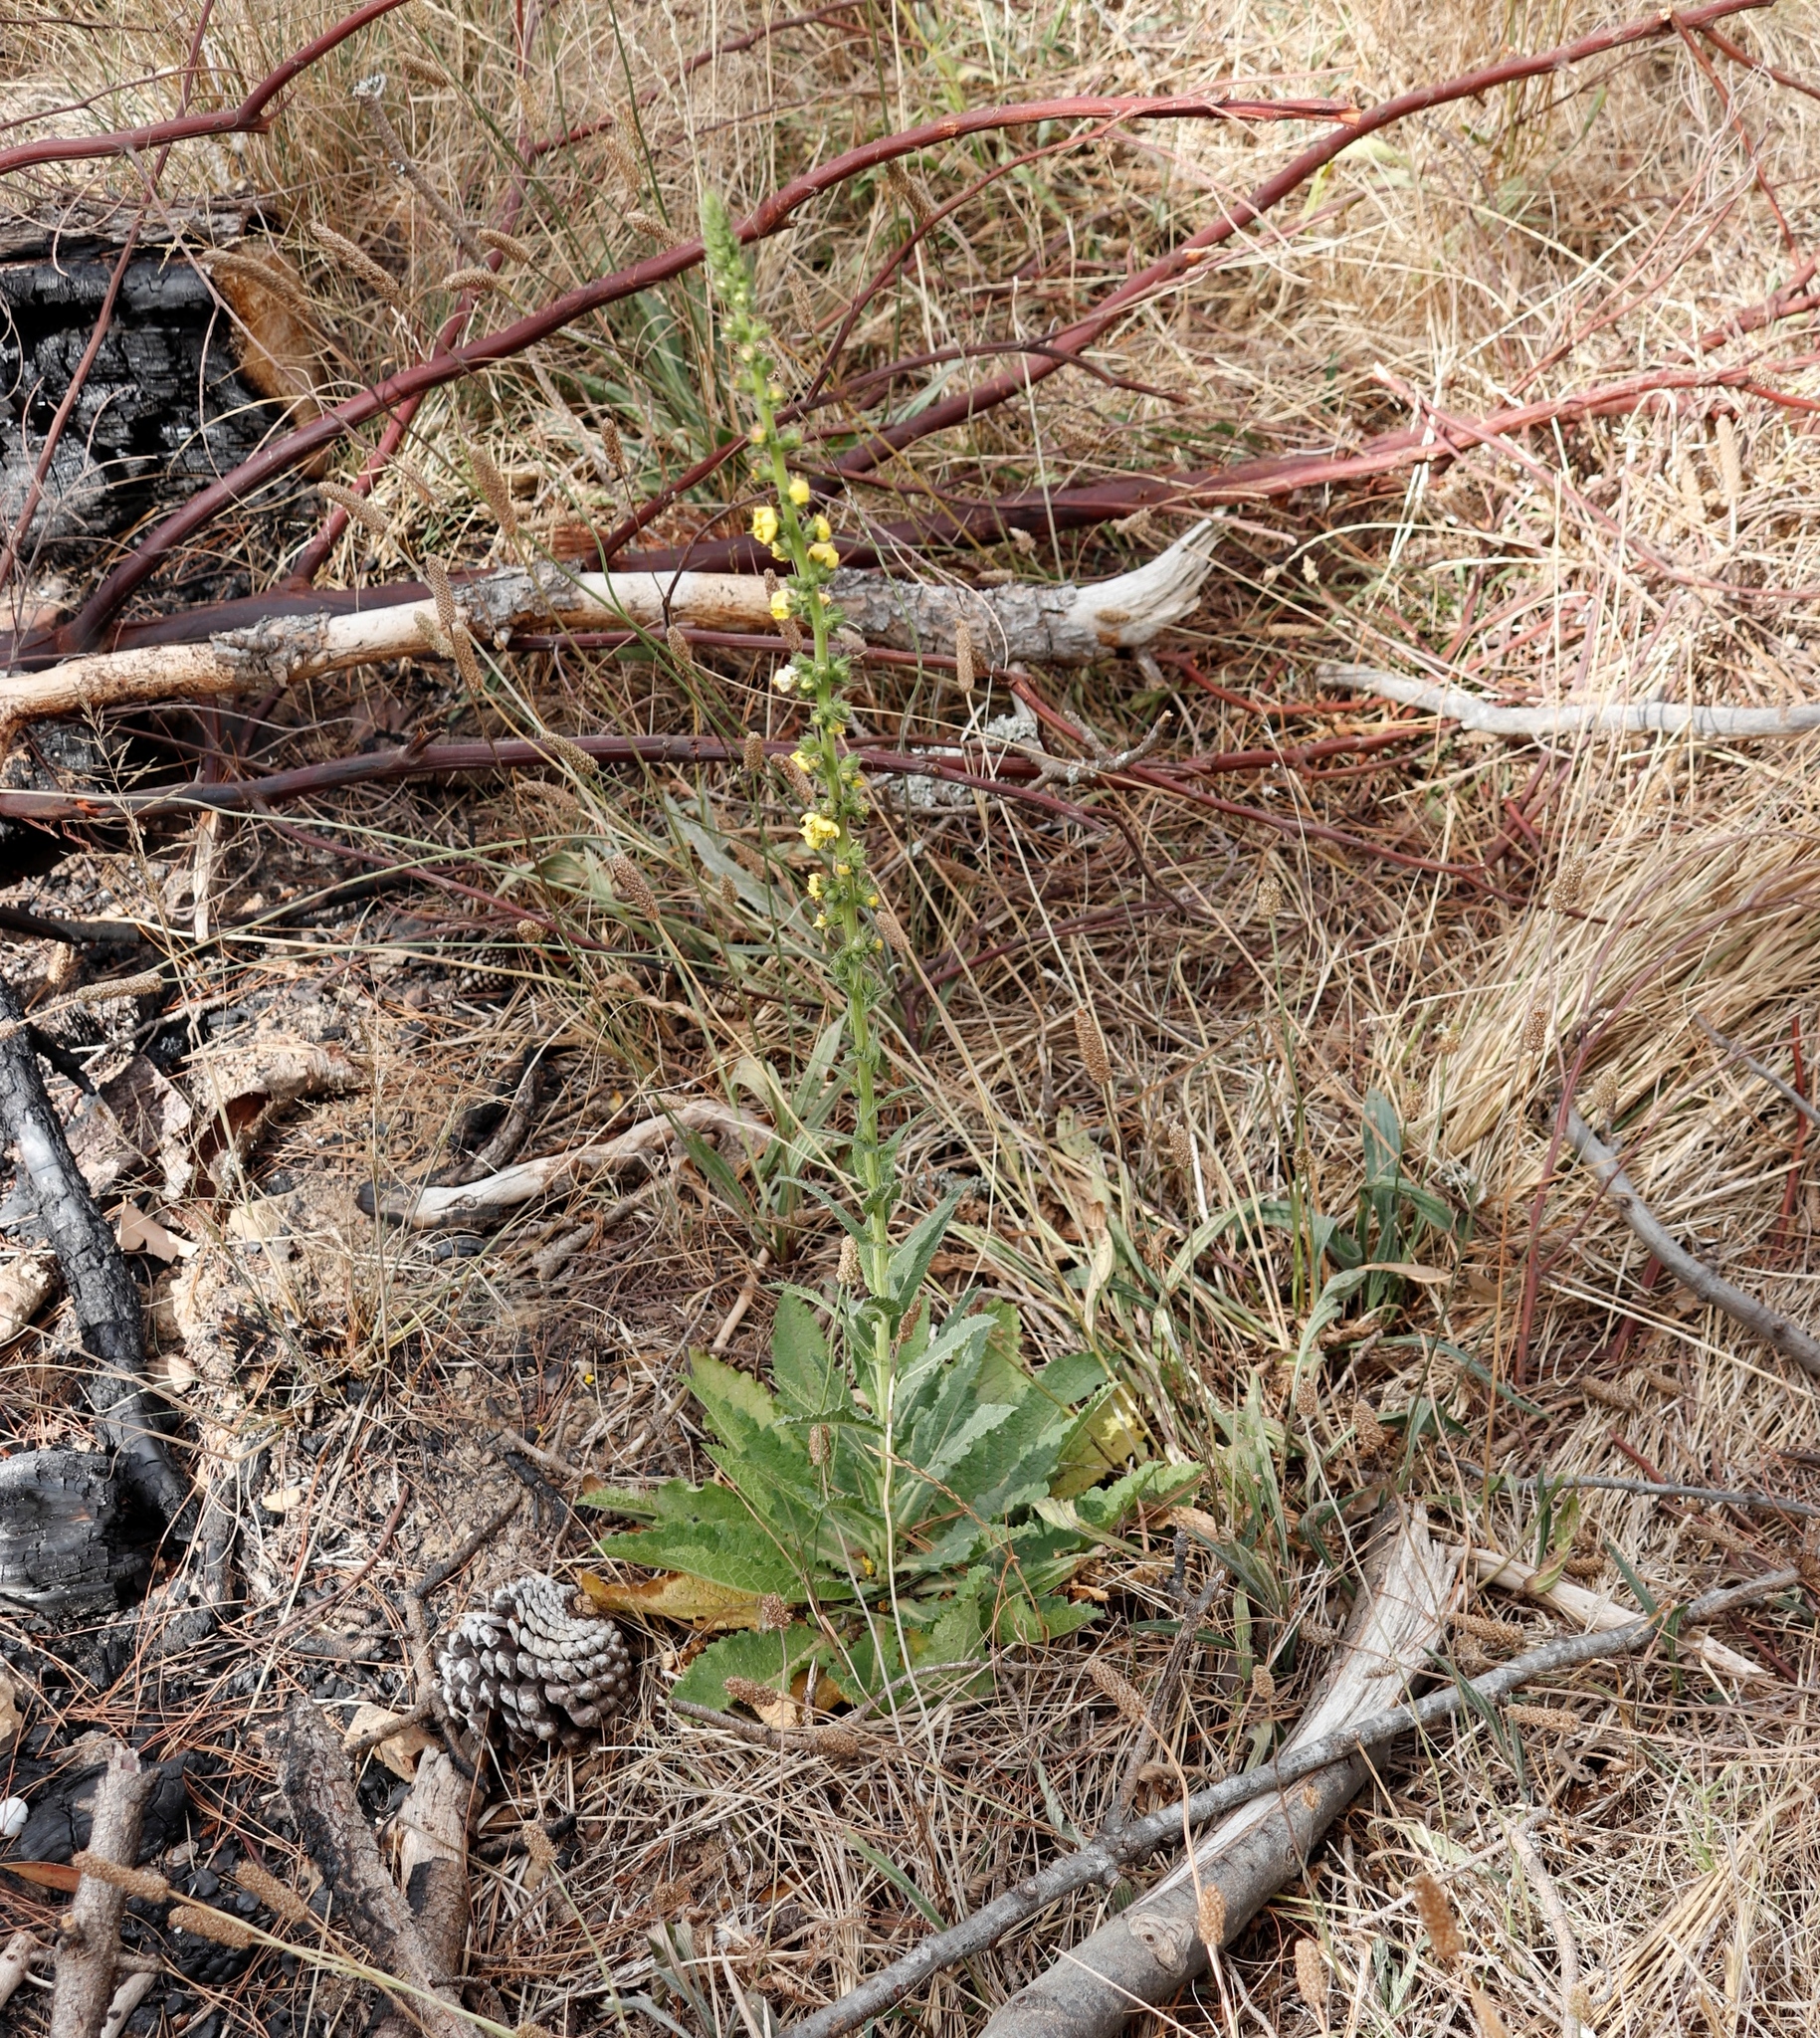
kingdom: Plantae
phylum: Tracheophyta
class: Magnoliopsida
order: Lamiales
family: Scrophulariaceae
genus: Verbascum
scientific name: Verbascum virgatum
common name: Twiggy mullein
